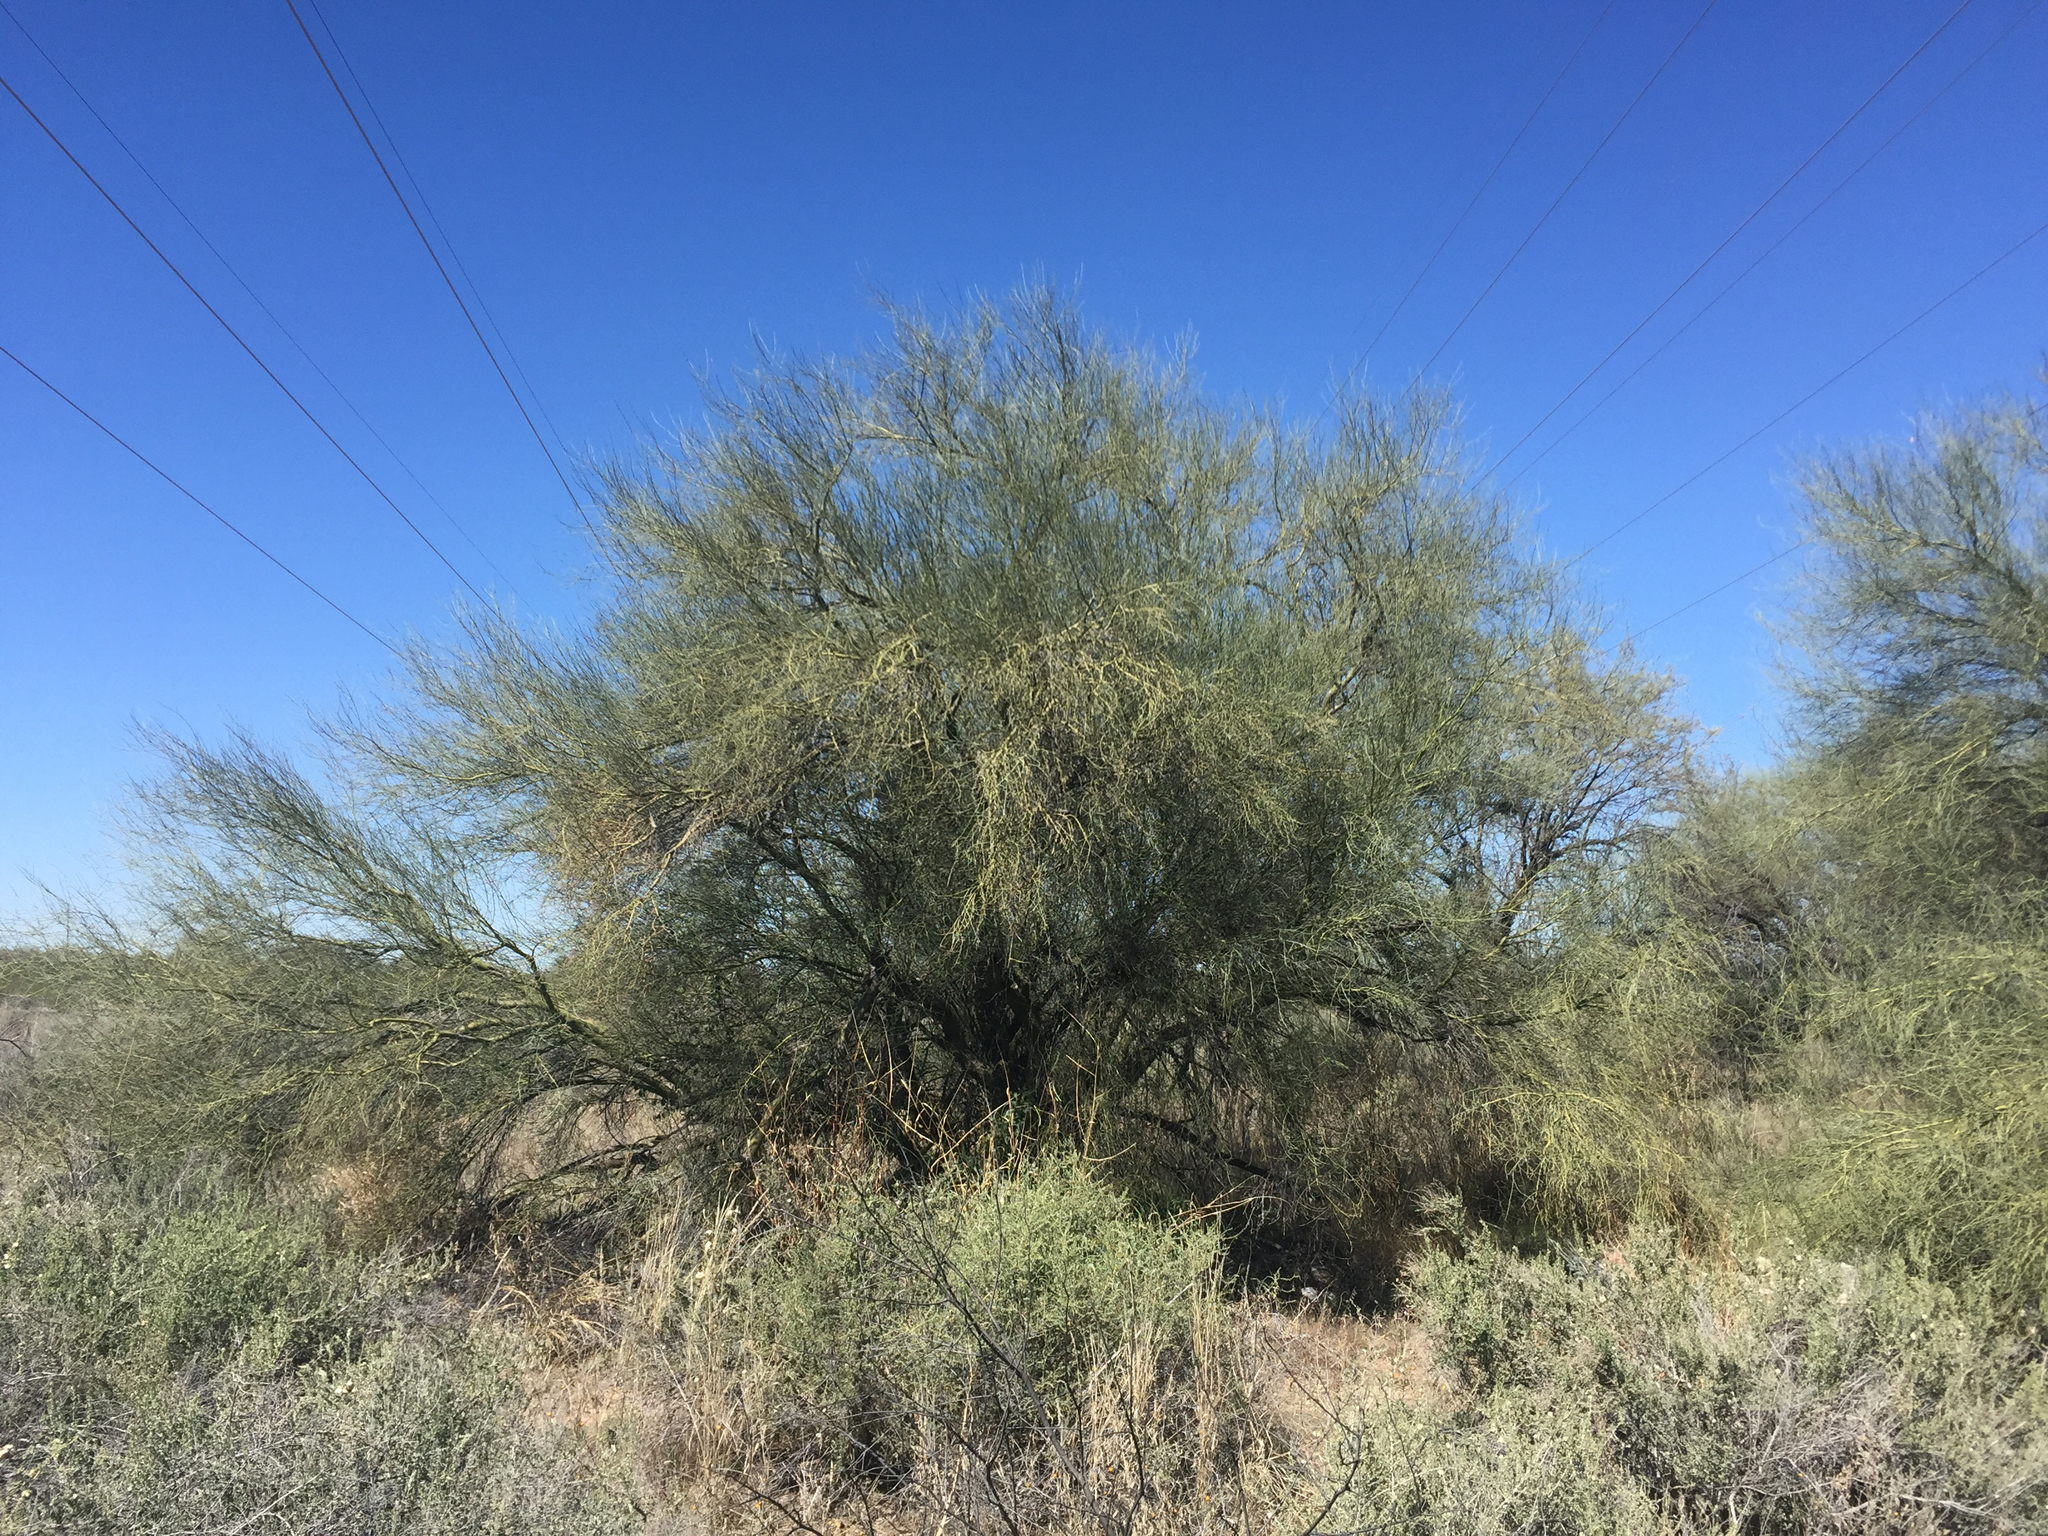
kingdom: Plantae
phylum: Tracheophyta
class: Magnoliopsida
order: Fabales
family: Fabaceae
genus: Parkinsonia
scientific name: Parkinsonia florida
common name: Blue paloverde
